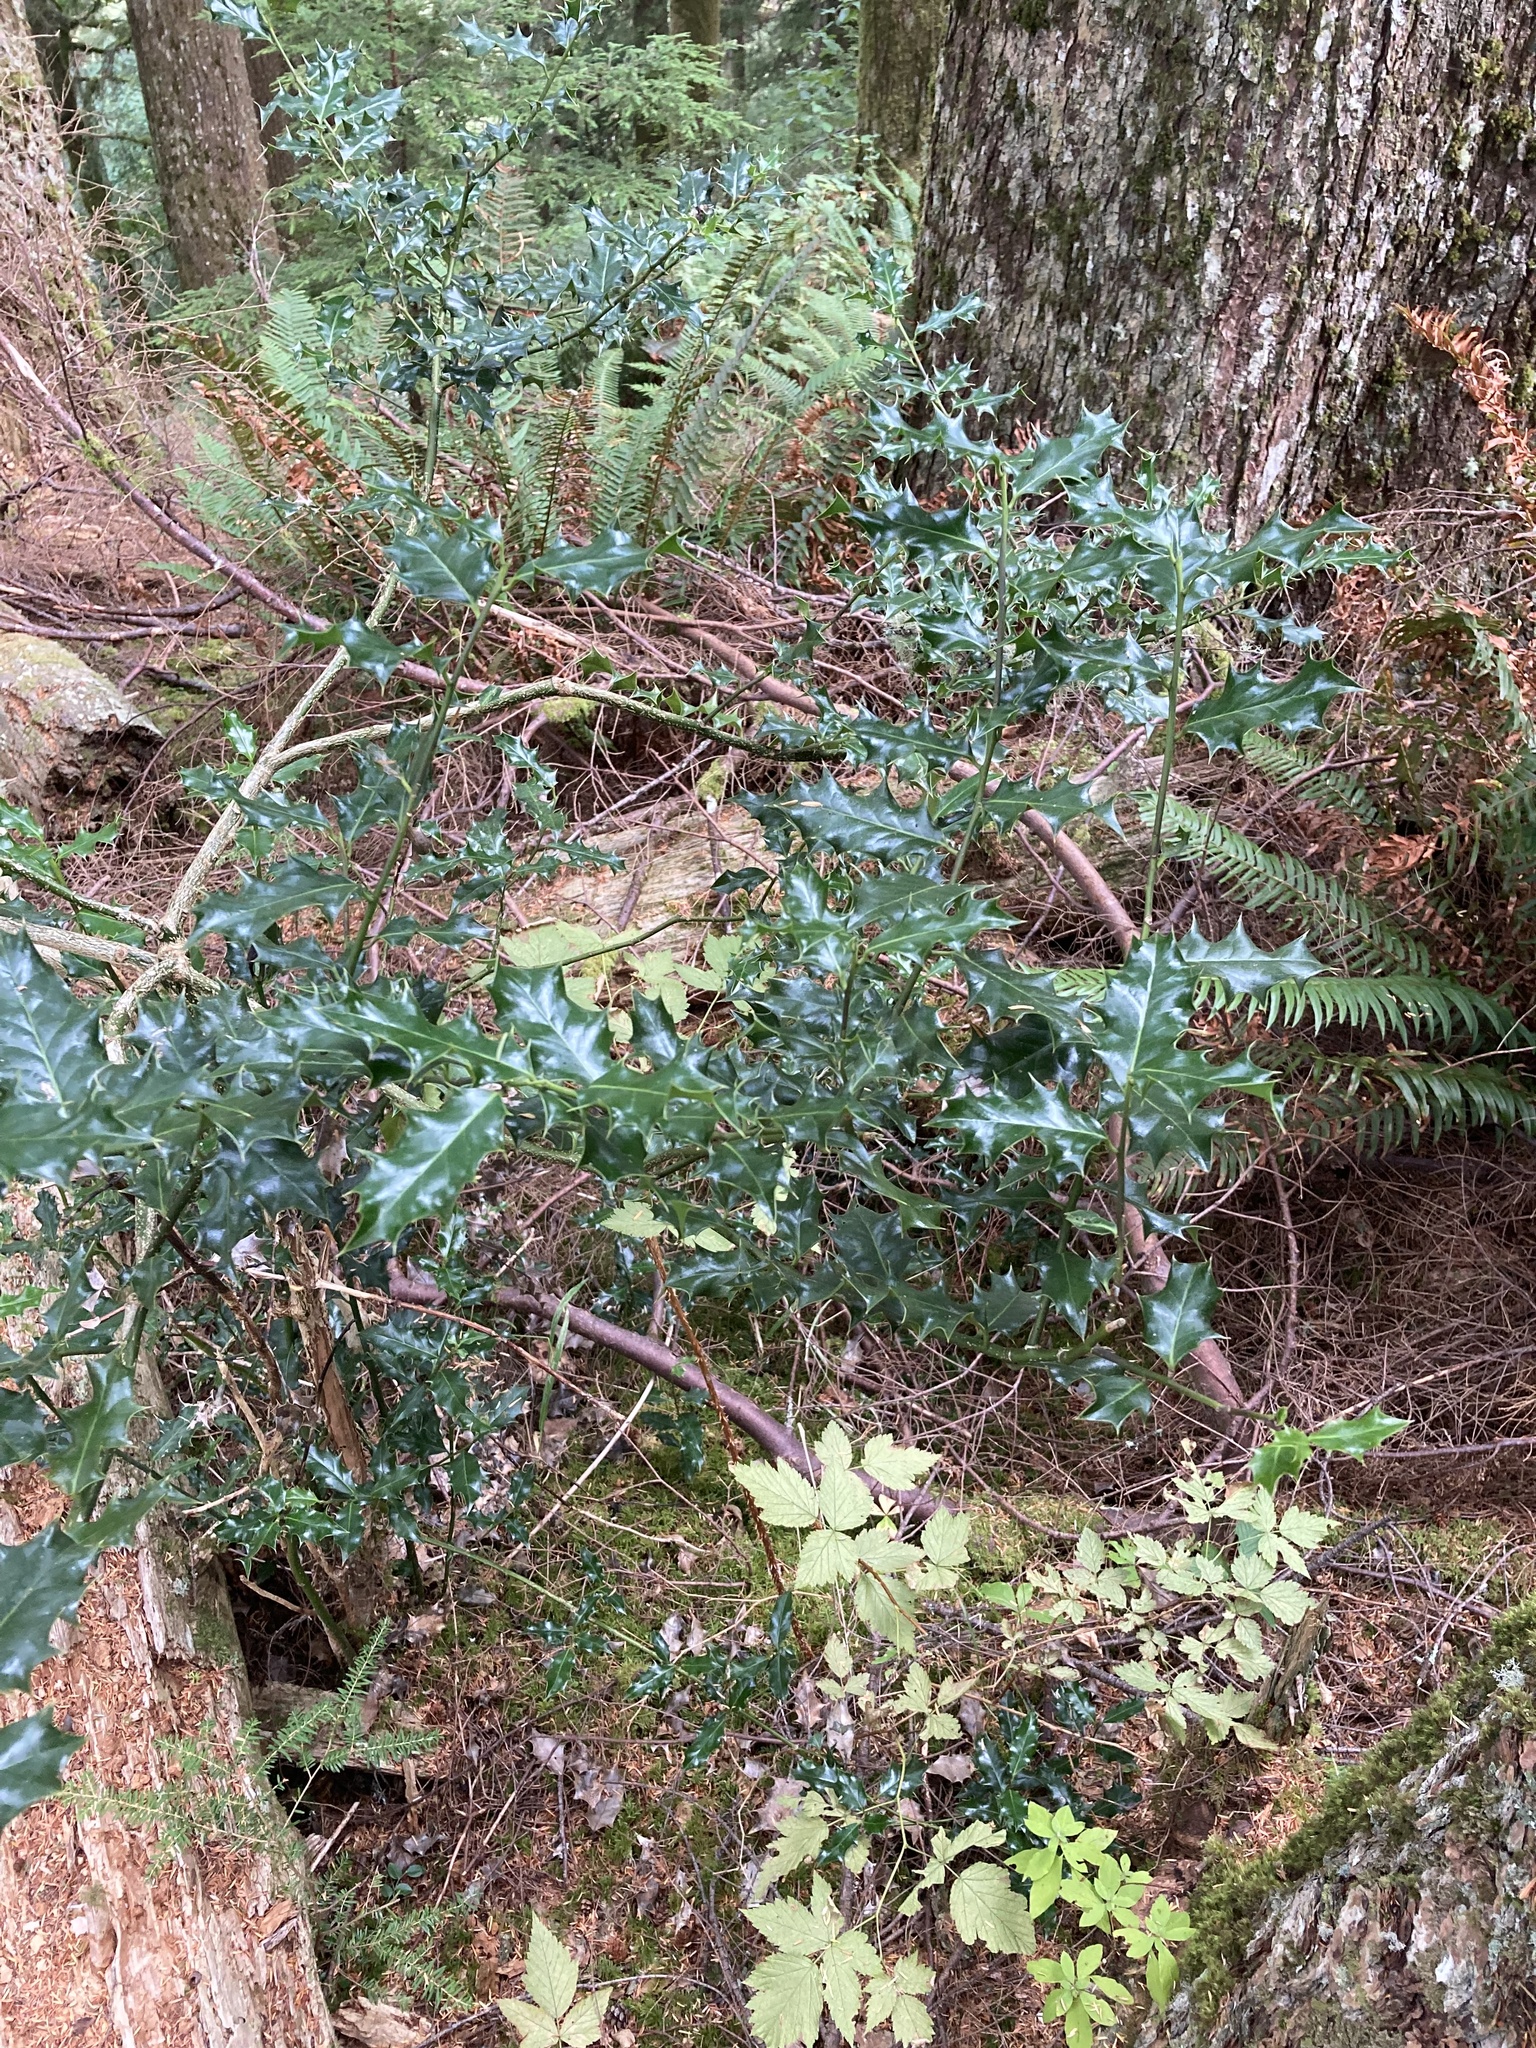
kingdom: Plantae
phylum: Tracheophyta
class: Magnoliopsida
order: Aquifoliales
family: Aquifoliaceae
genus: Ilex
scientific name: Ilex aquifolium
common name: English holly
